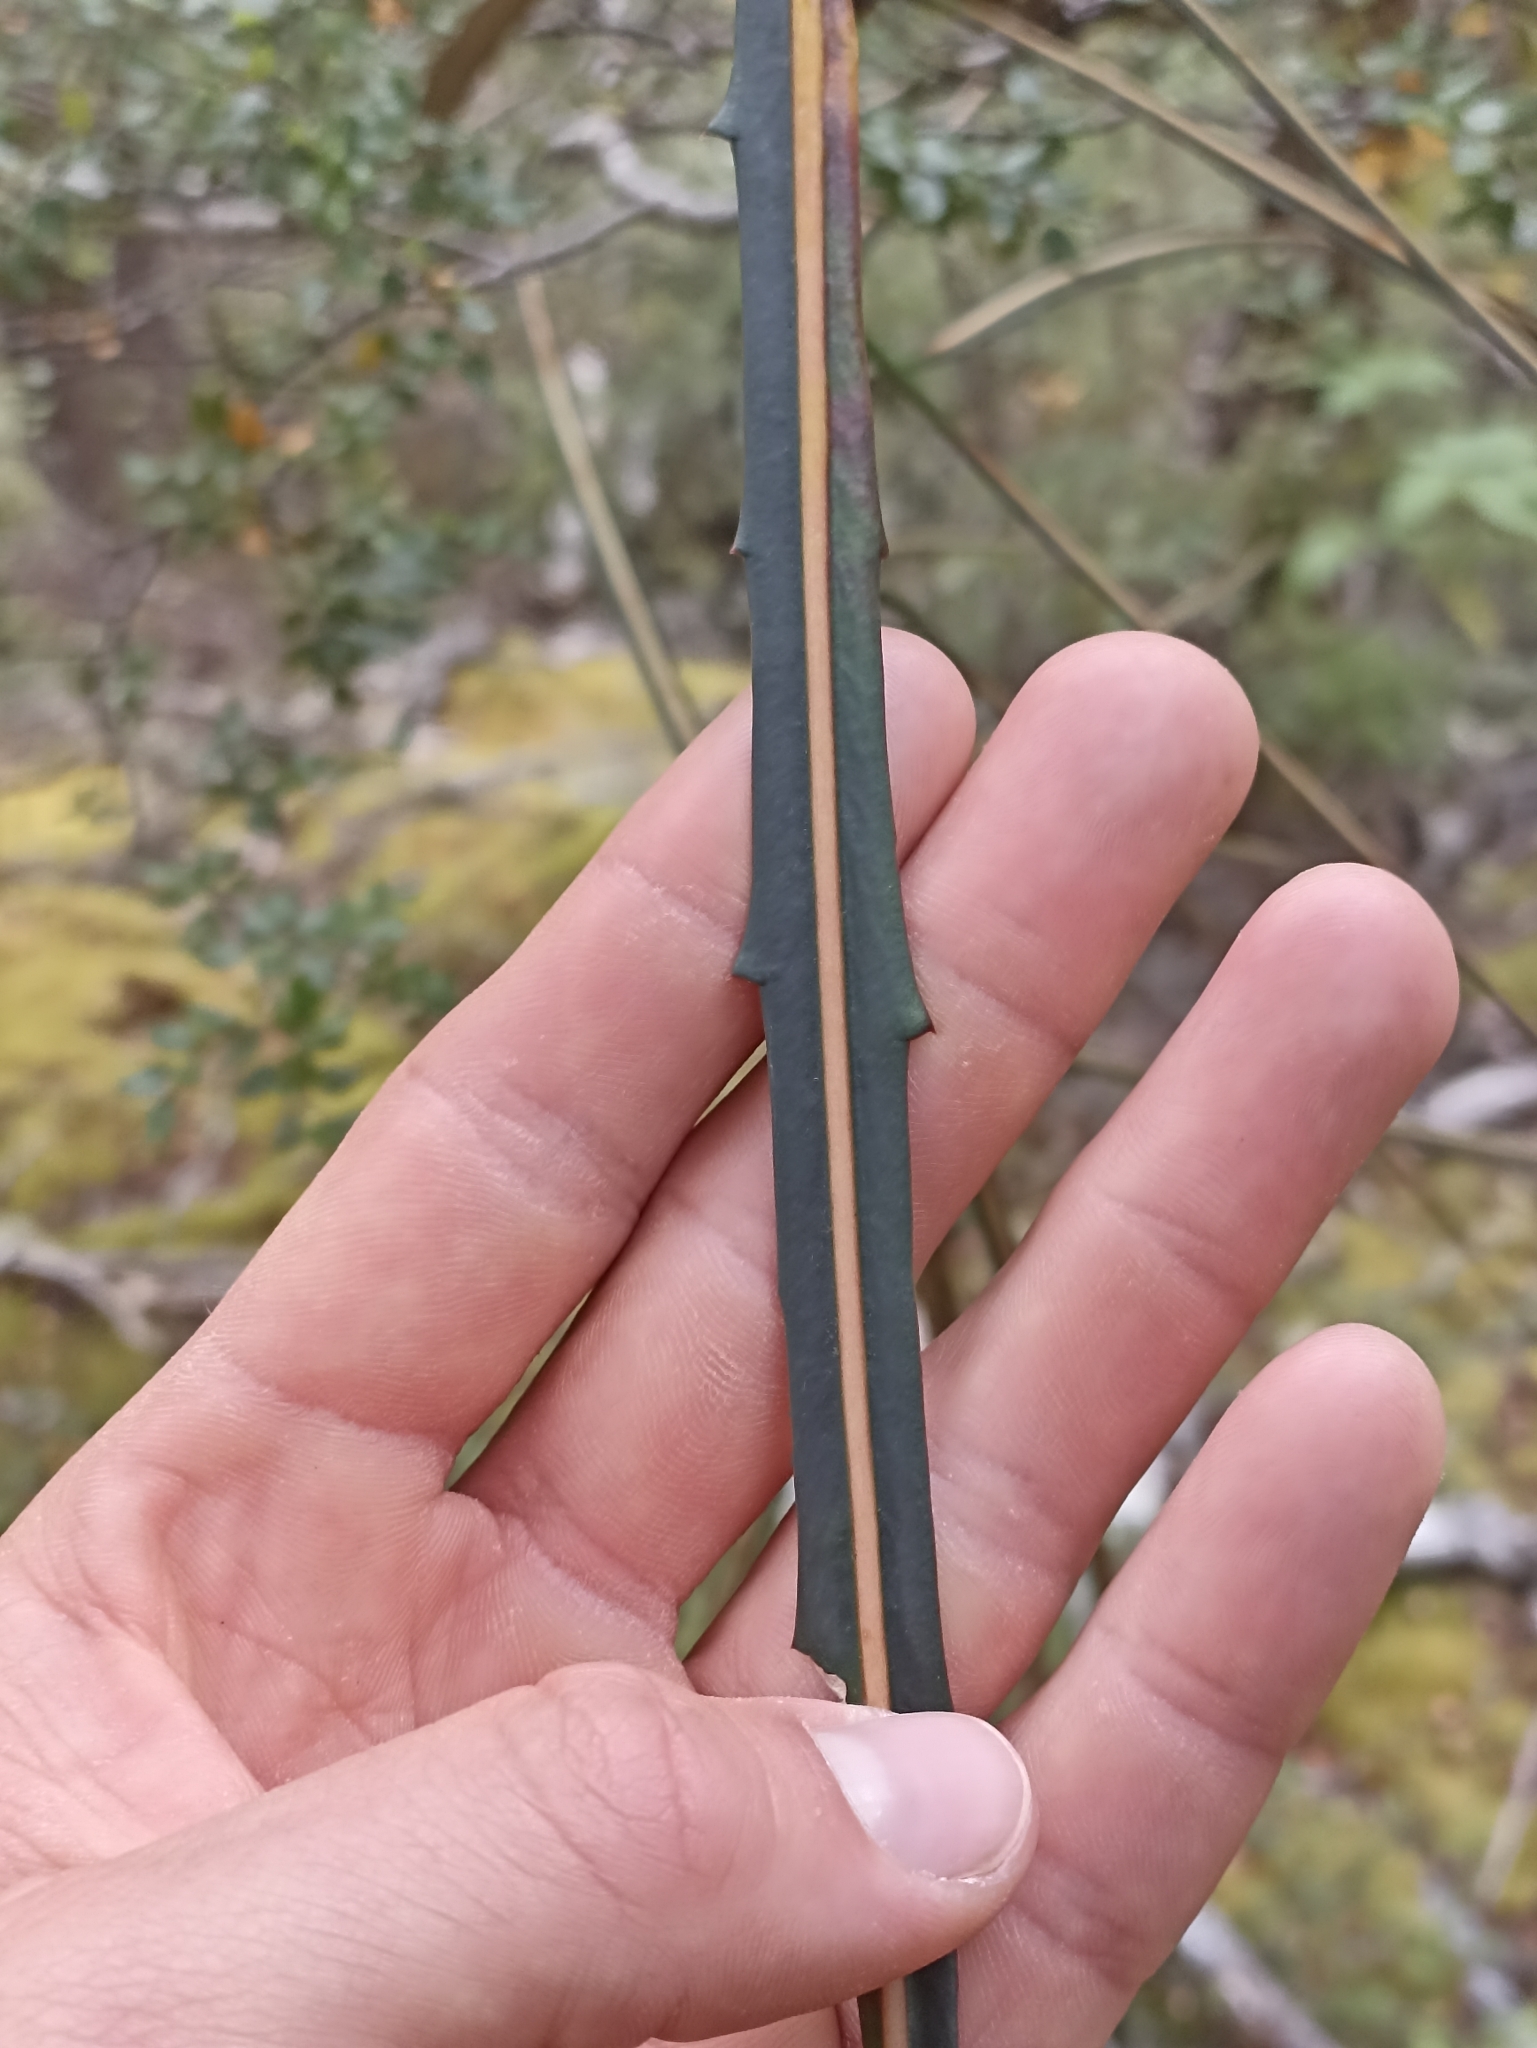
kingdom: Plantae
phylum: Tracheophyta
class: Magnoliopsida
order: Apiales
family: Araliaceae
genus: Pseudopanax
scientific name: Pseudopanax crassifolius
